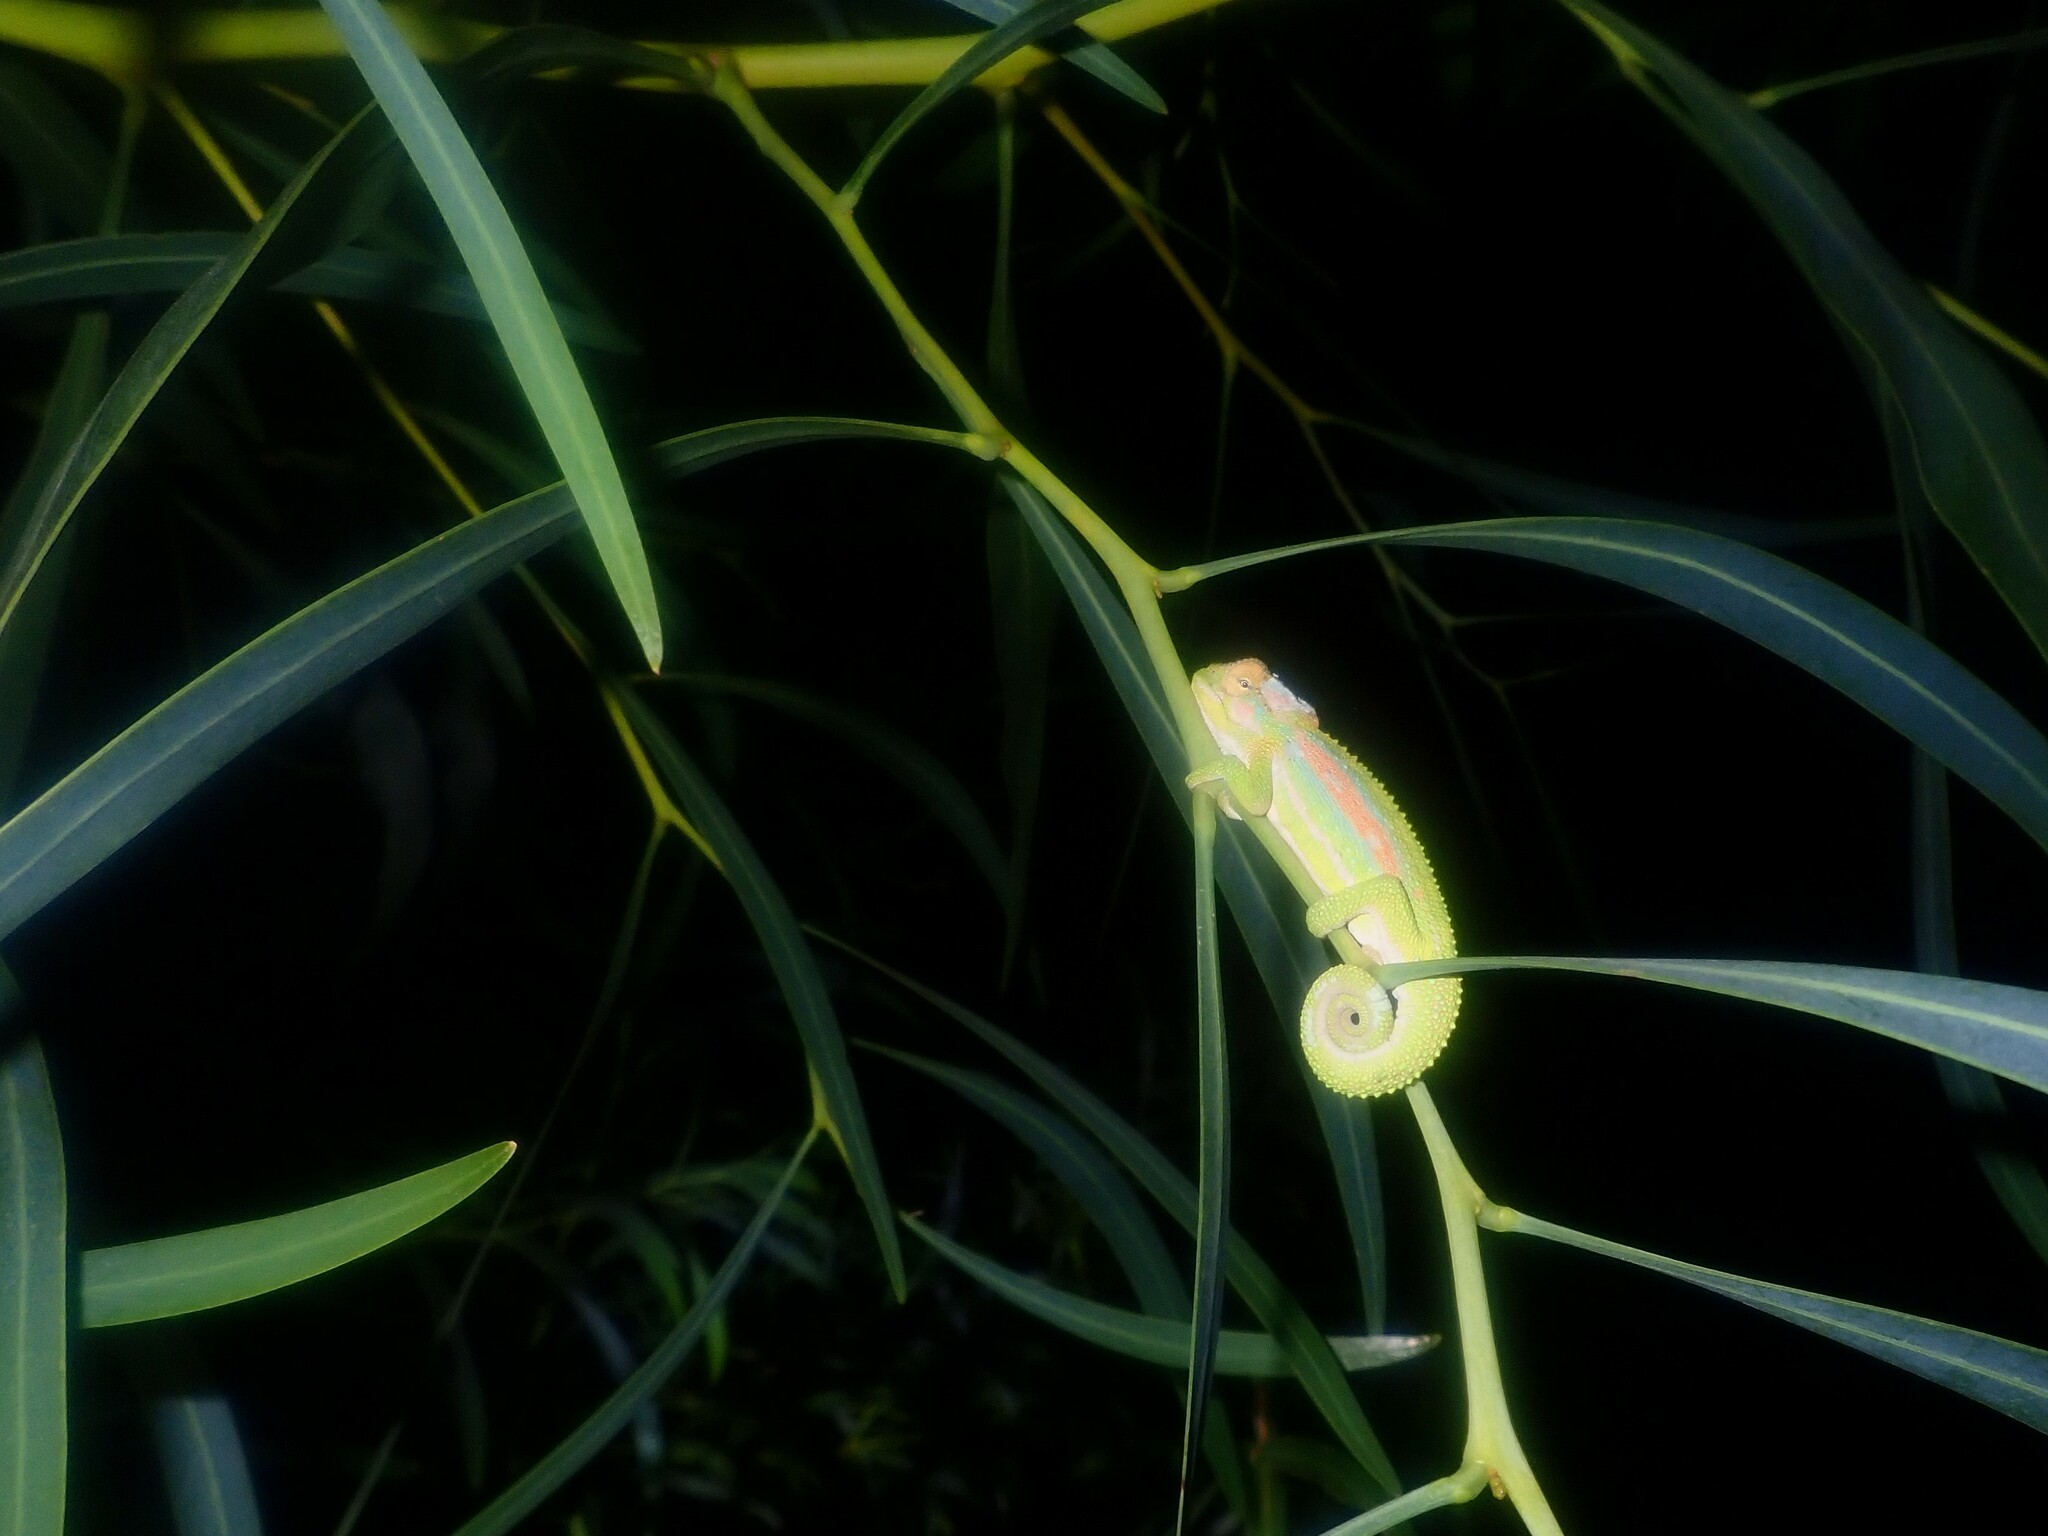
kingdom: Animalia
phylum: Chordata
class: Squamata
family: Chamaeleonidae
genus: Bradypodion
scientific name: Bradypodion pumilum
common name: Cape dwarf chameleon
